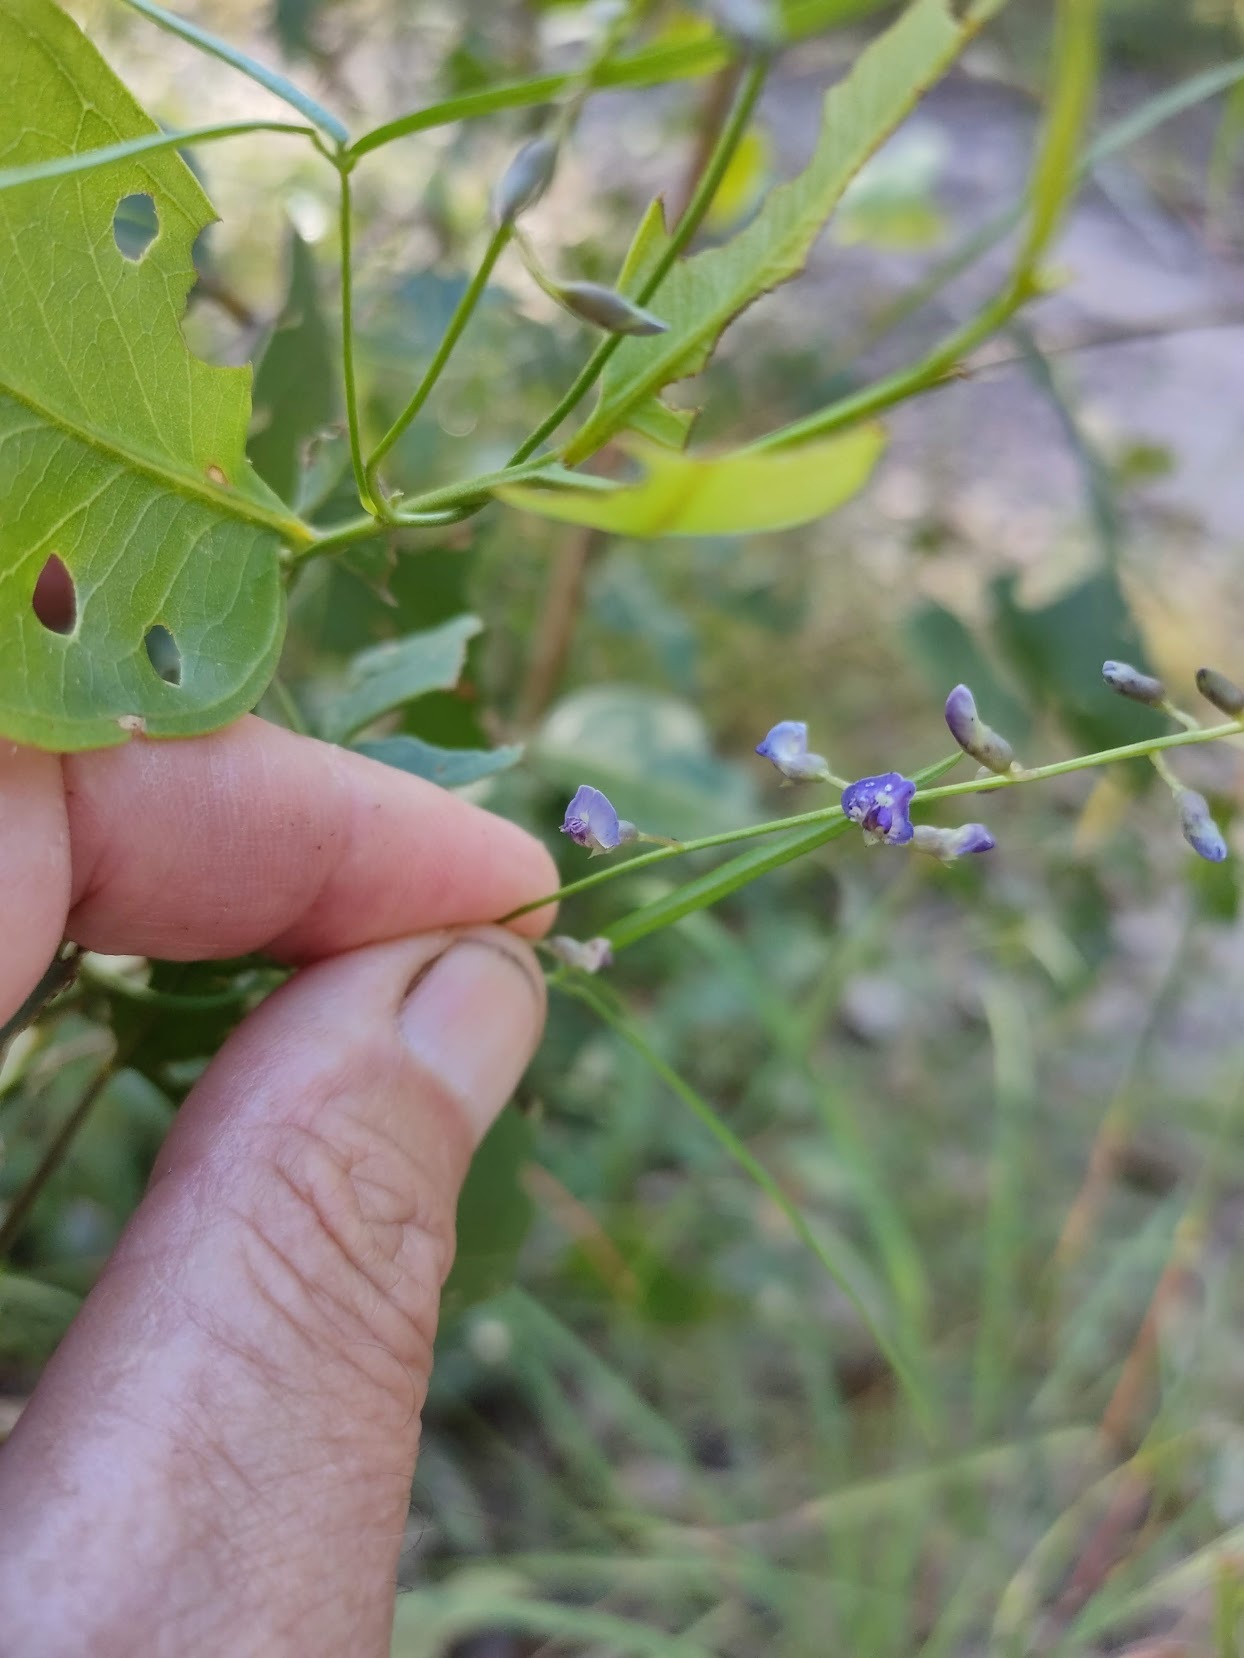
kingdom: Plantae
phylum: Tracheophyta
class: Magnoliopsida
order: Fabales
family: Fabaceae
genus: Glycine
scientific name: Glycine clandestina
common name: Twining glycine
